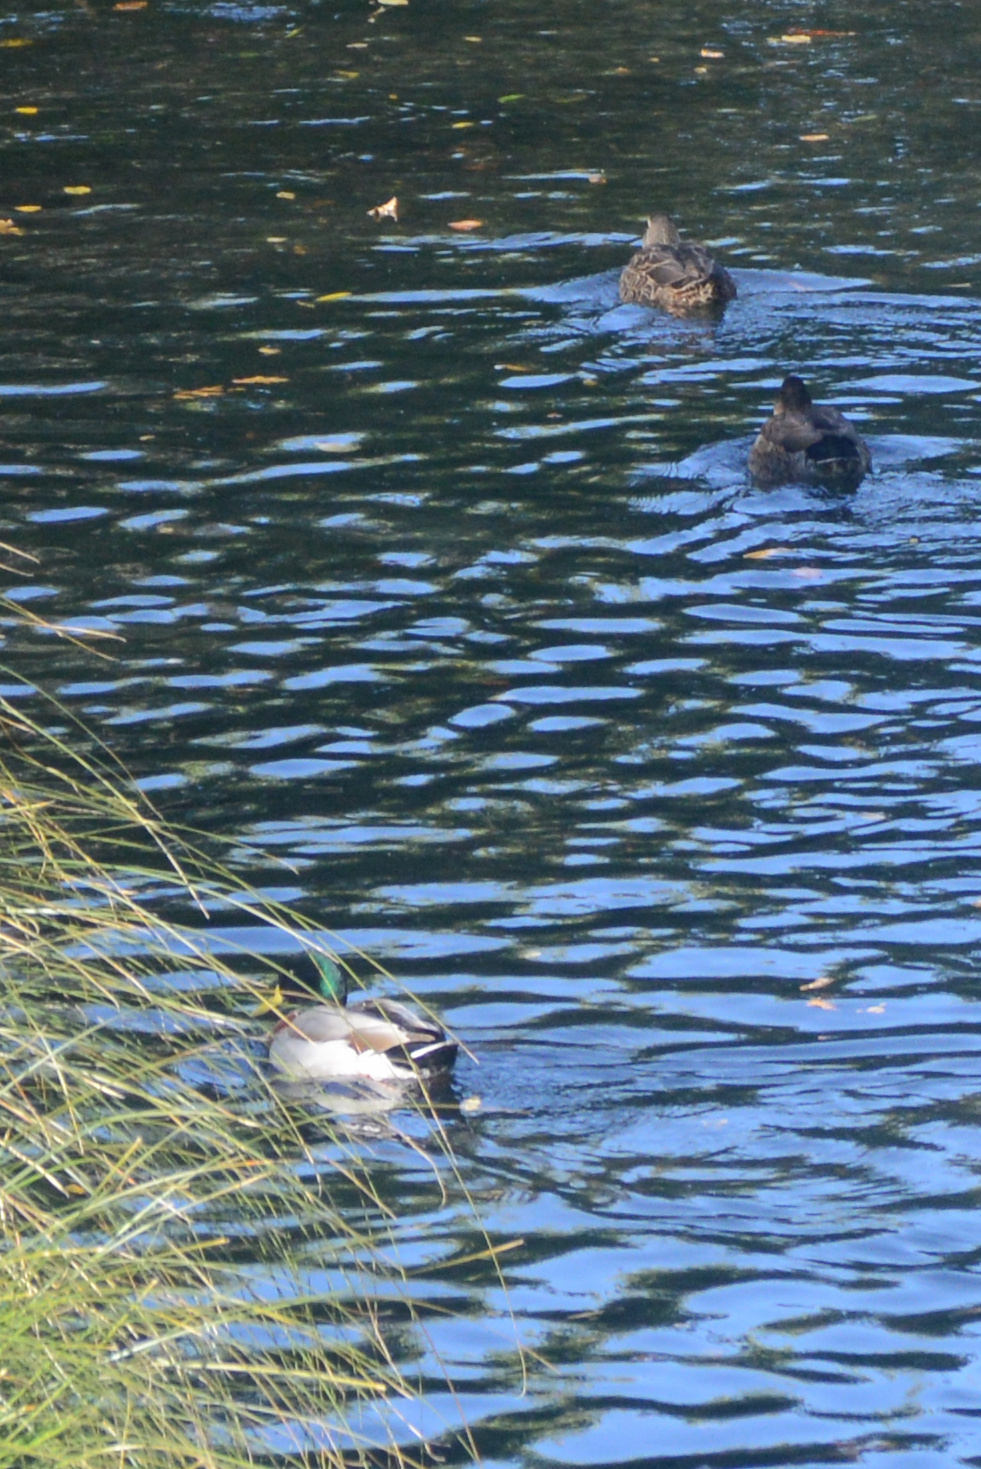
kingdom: Animalia
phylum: Chordata
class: Aves
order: Anseriformes
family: Anatidae
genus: Anas
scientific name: Anas platyrhynchos
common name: Mallard
